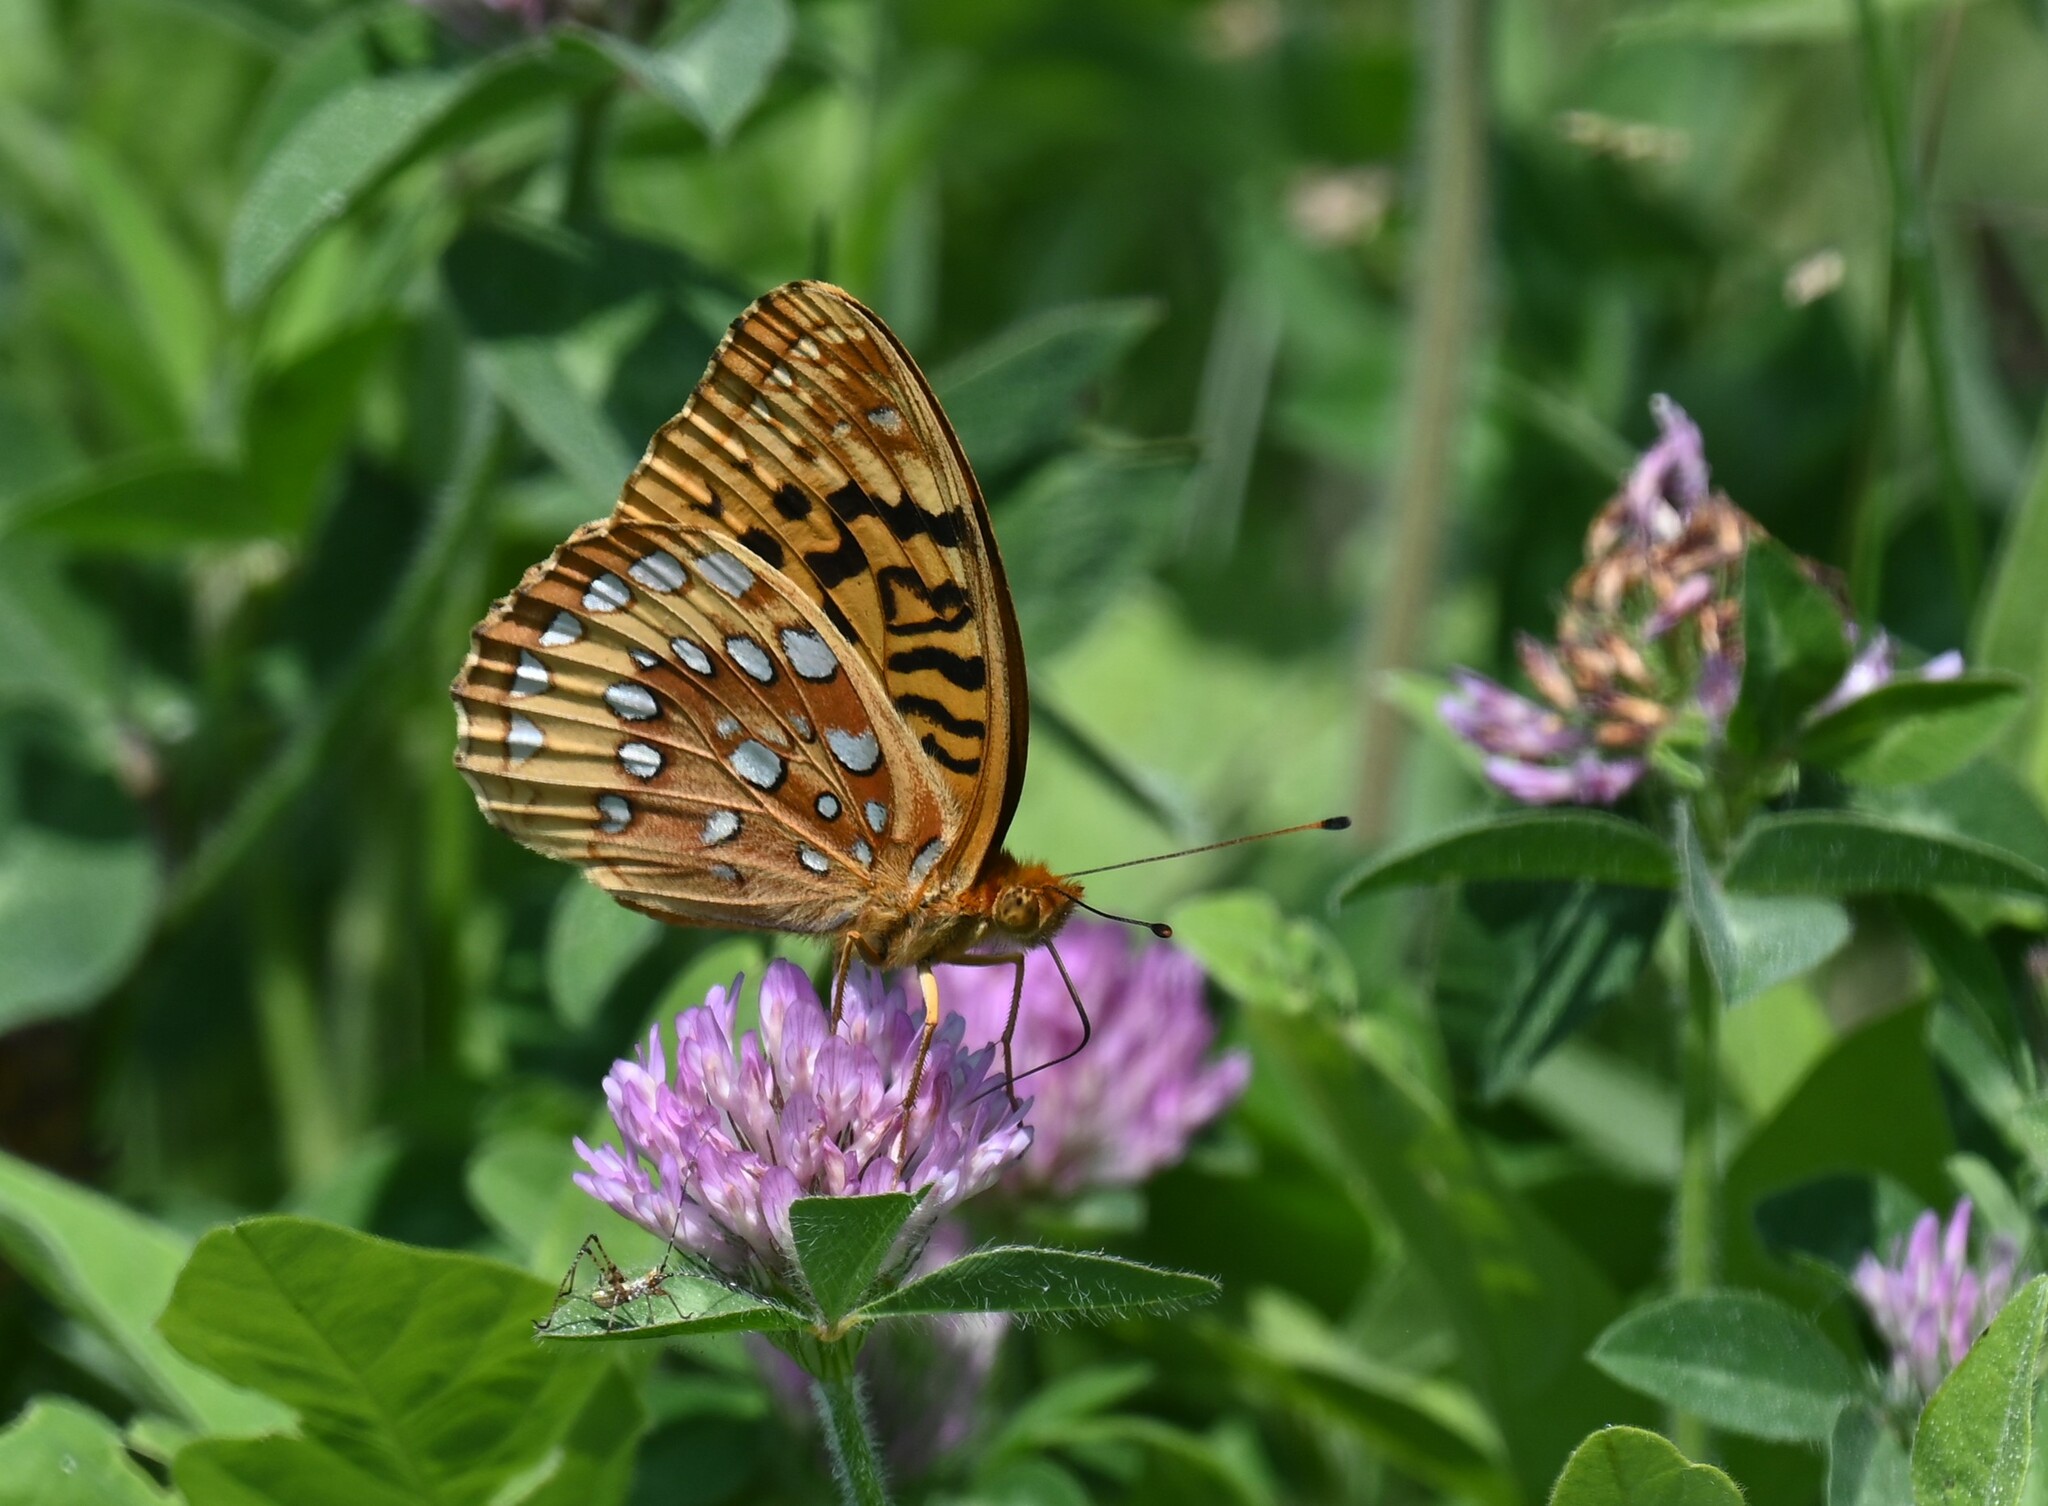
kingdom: Animalia
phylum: Arthropoda
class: Insecta
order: Lepidoptera
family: Nymphalidae
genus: Speyeria
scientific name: Speyeria cybele
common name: Great spangled fritillary
